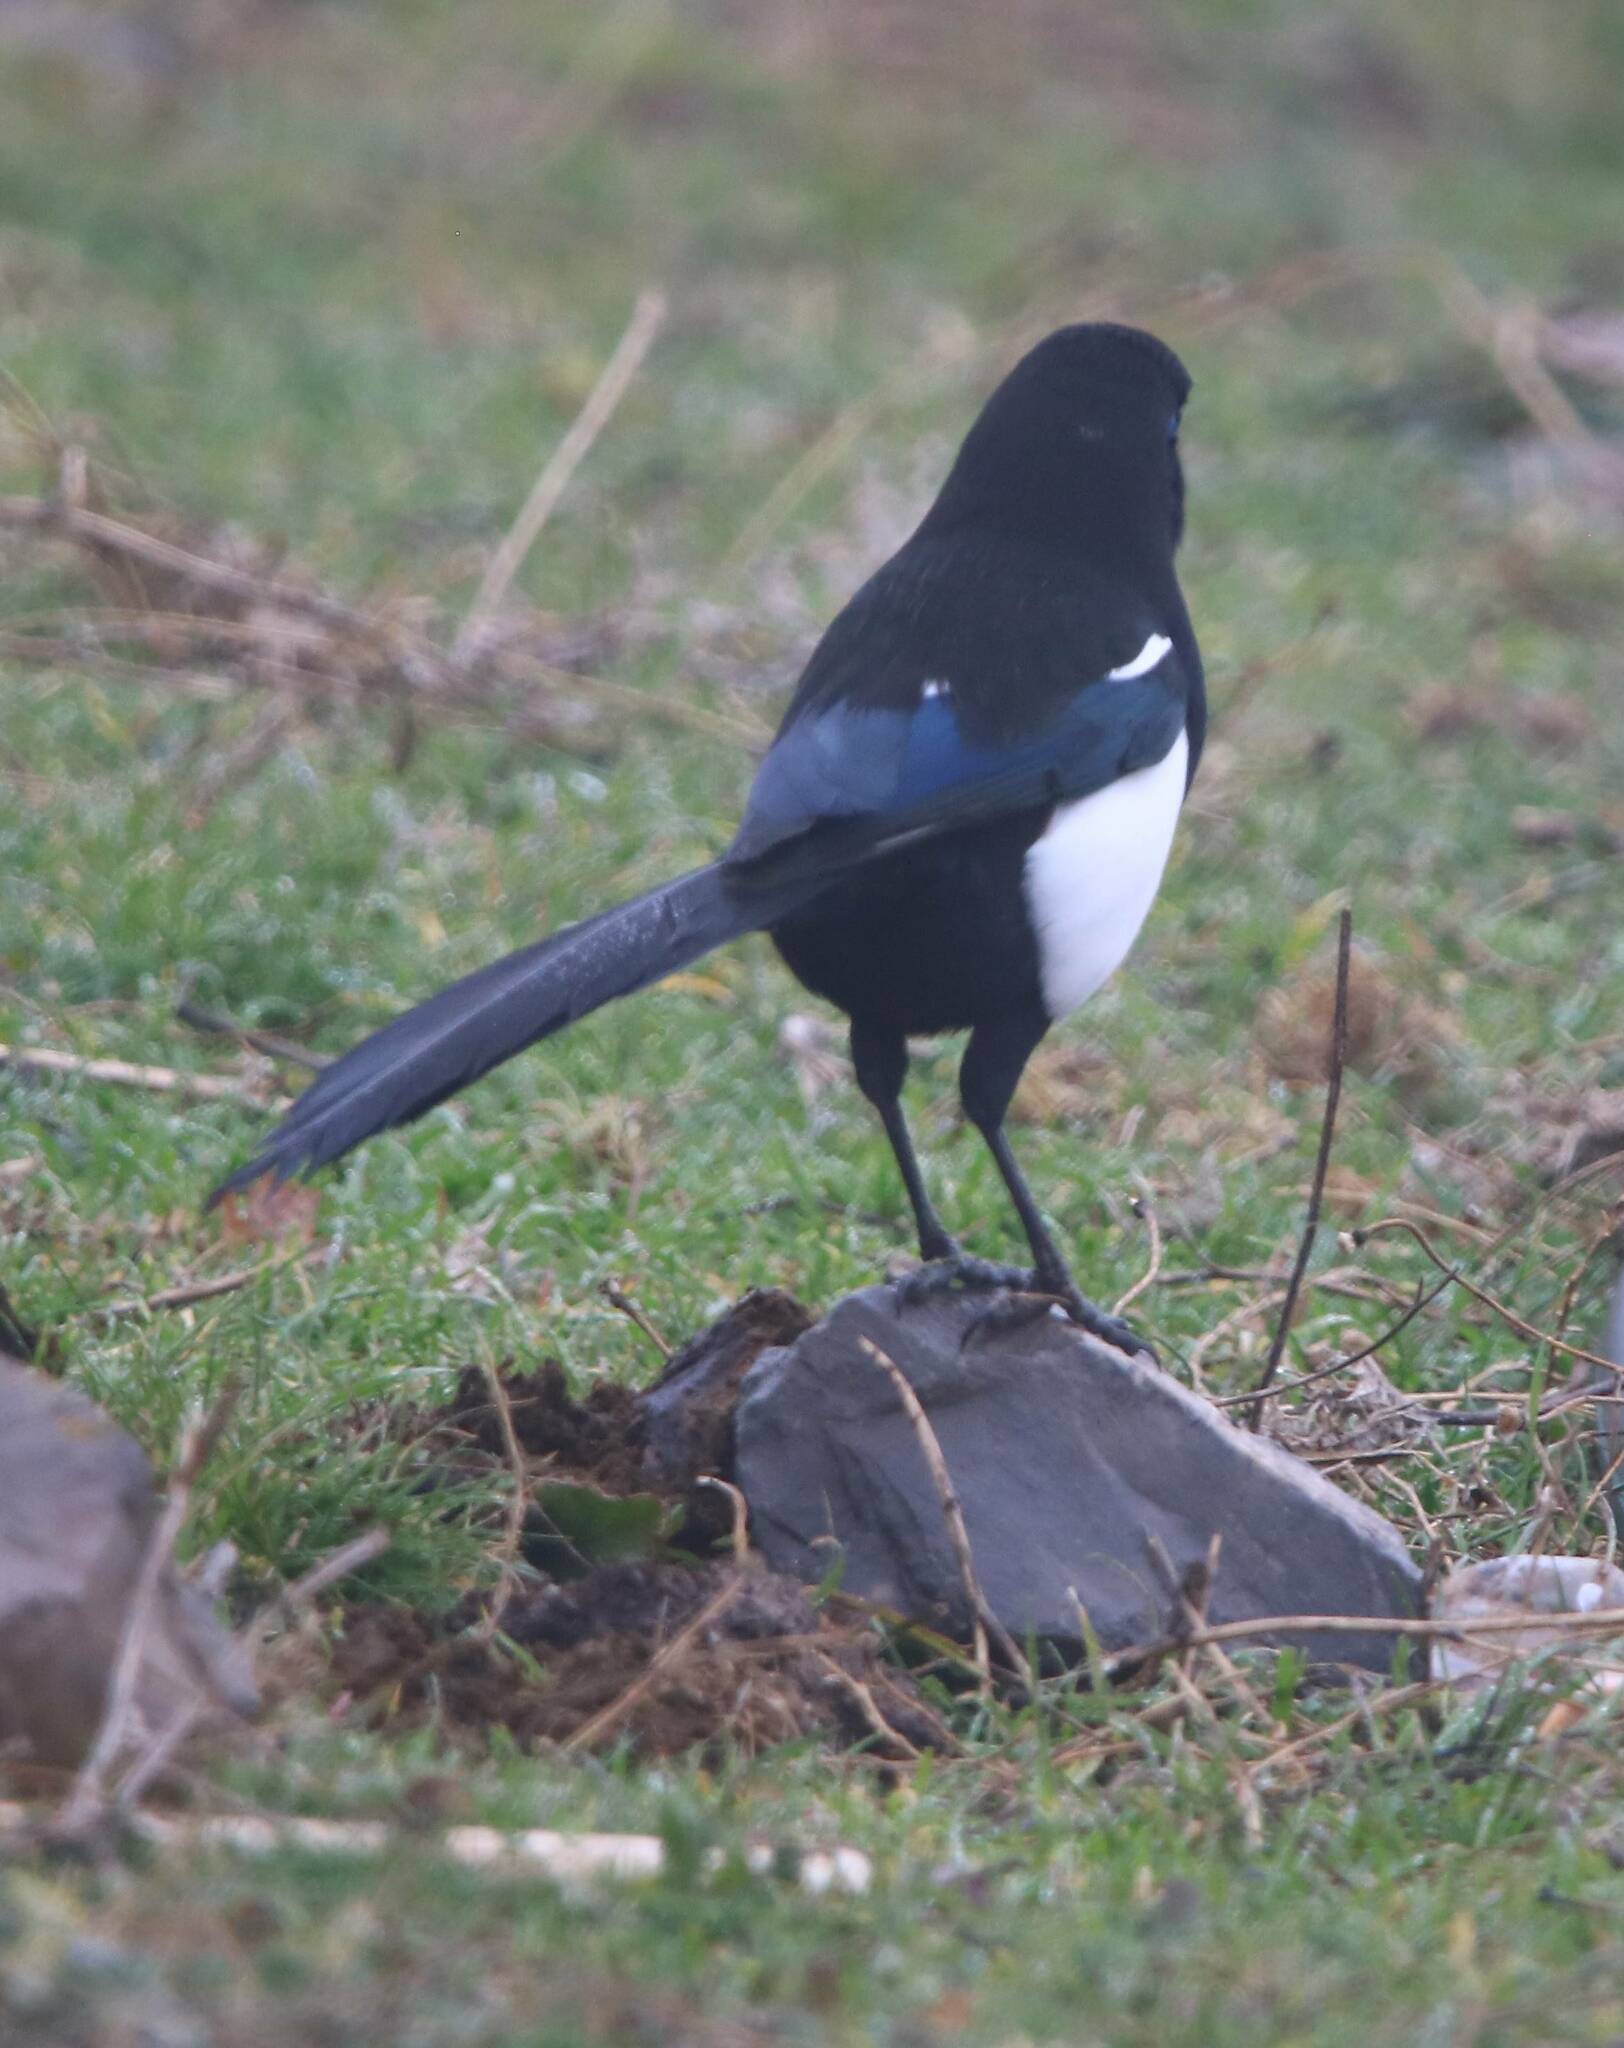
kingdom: Animalia
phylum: Chordata
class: Aves
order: Passeriformes
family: Corvidae
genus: Pica
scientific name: Pica mauritanica
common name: Maghreb magpie
